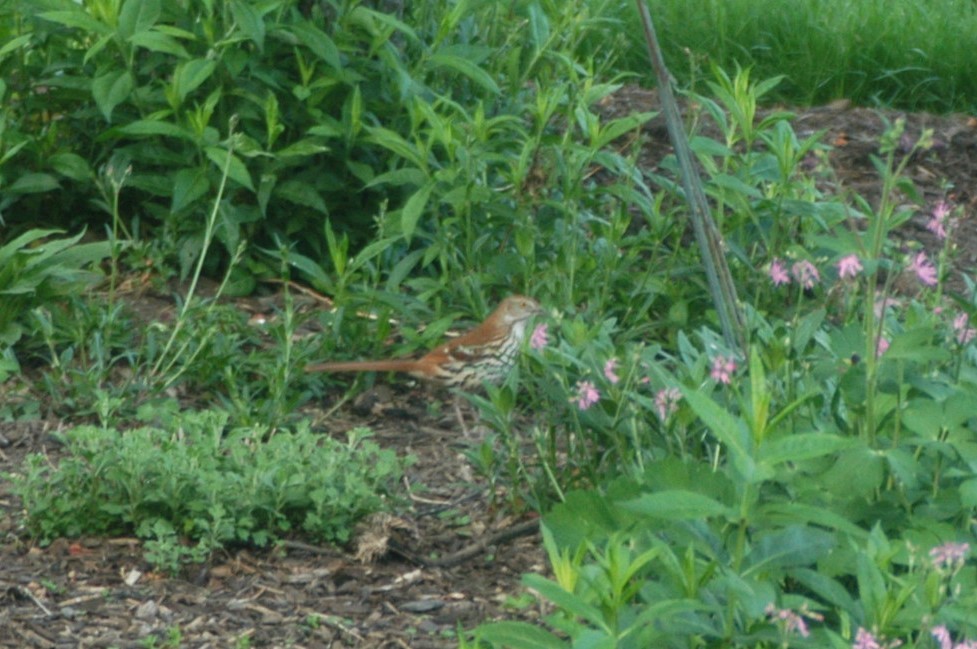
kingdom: Animalia
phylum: Chordata
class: Aves
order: Passeriformes
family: Mimidae
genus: Toxostoma
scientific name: Toxostoma rufum
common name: Brown thrasher
